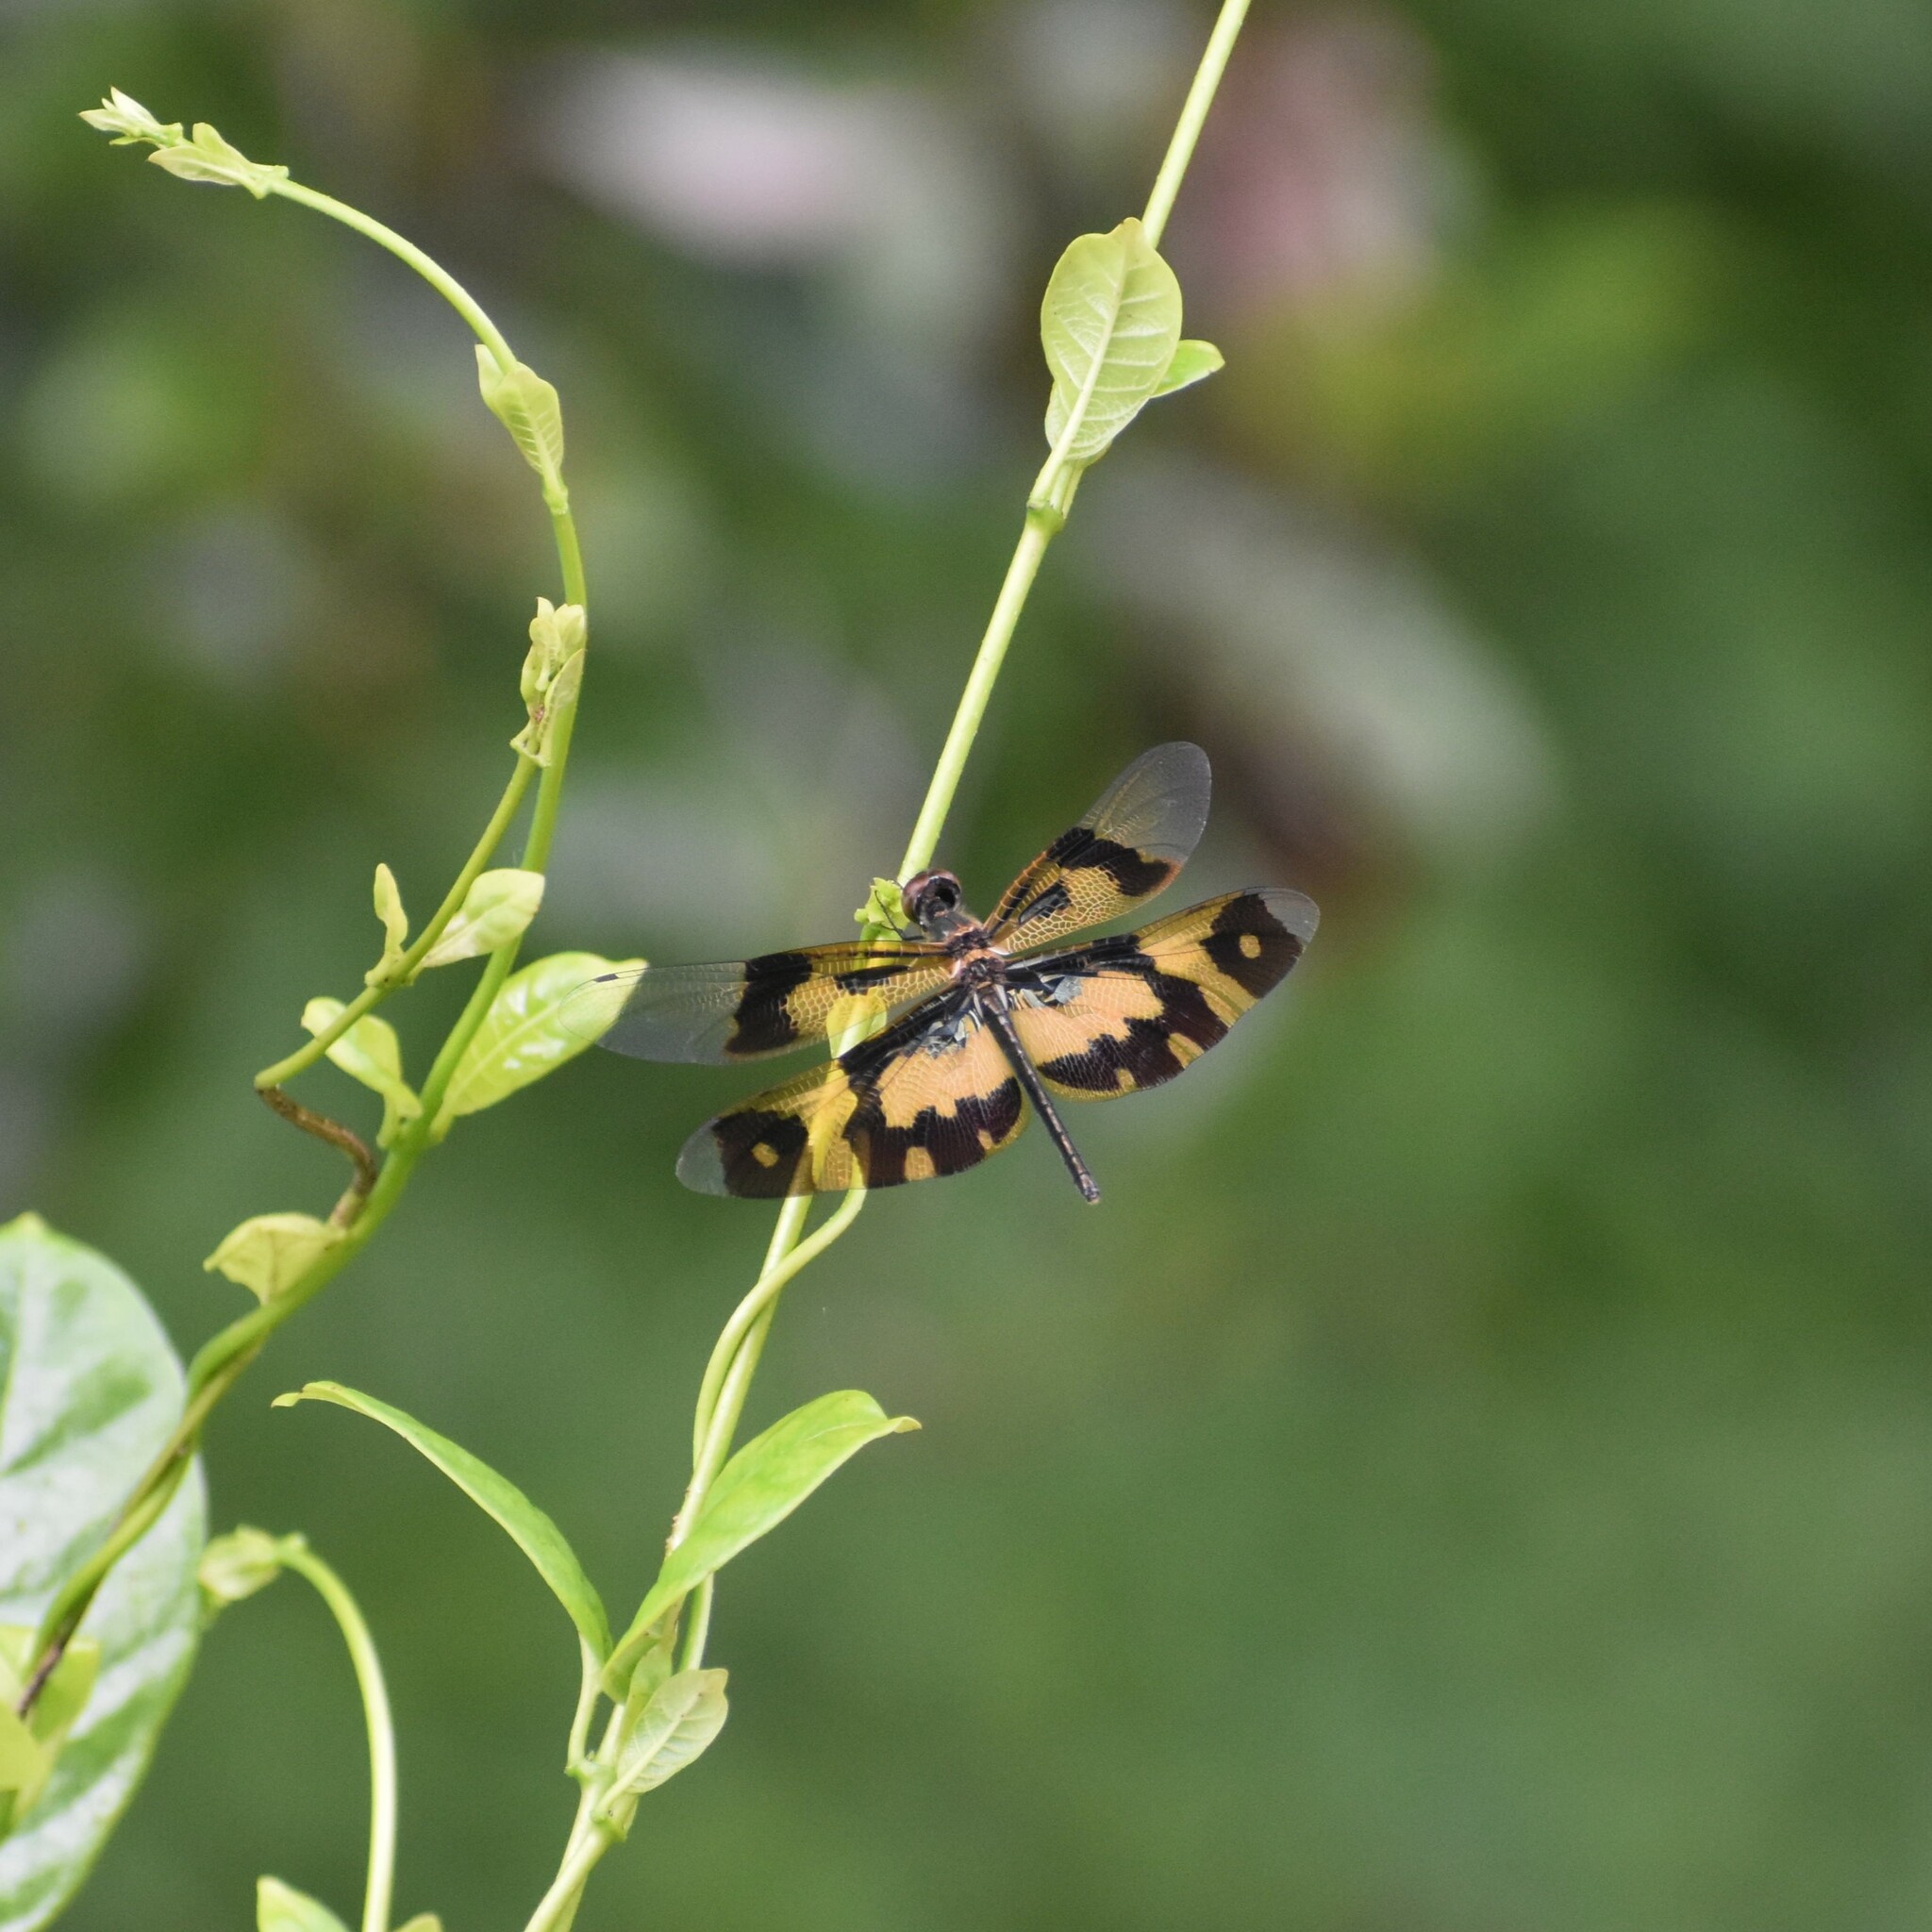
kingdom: Animalia
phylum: Arthropoda
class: Insecta
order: Odonata
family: Libellulidae
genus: Rhyothemis
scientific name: Rhyothemis variegata
